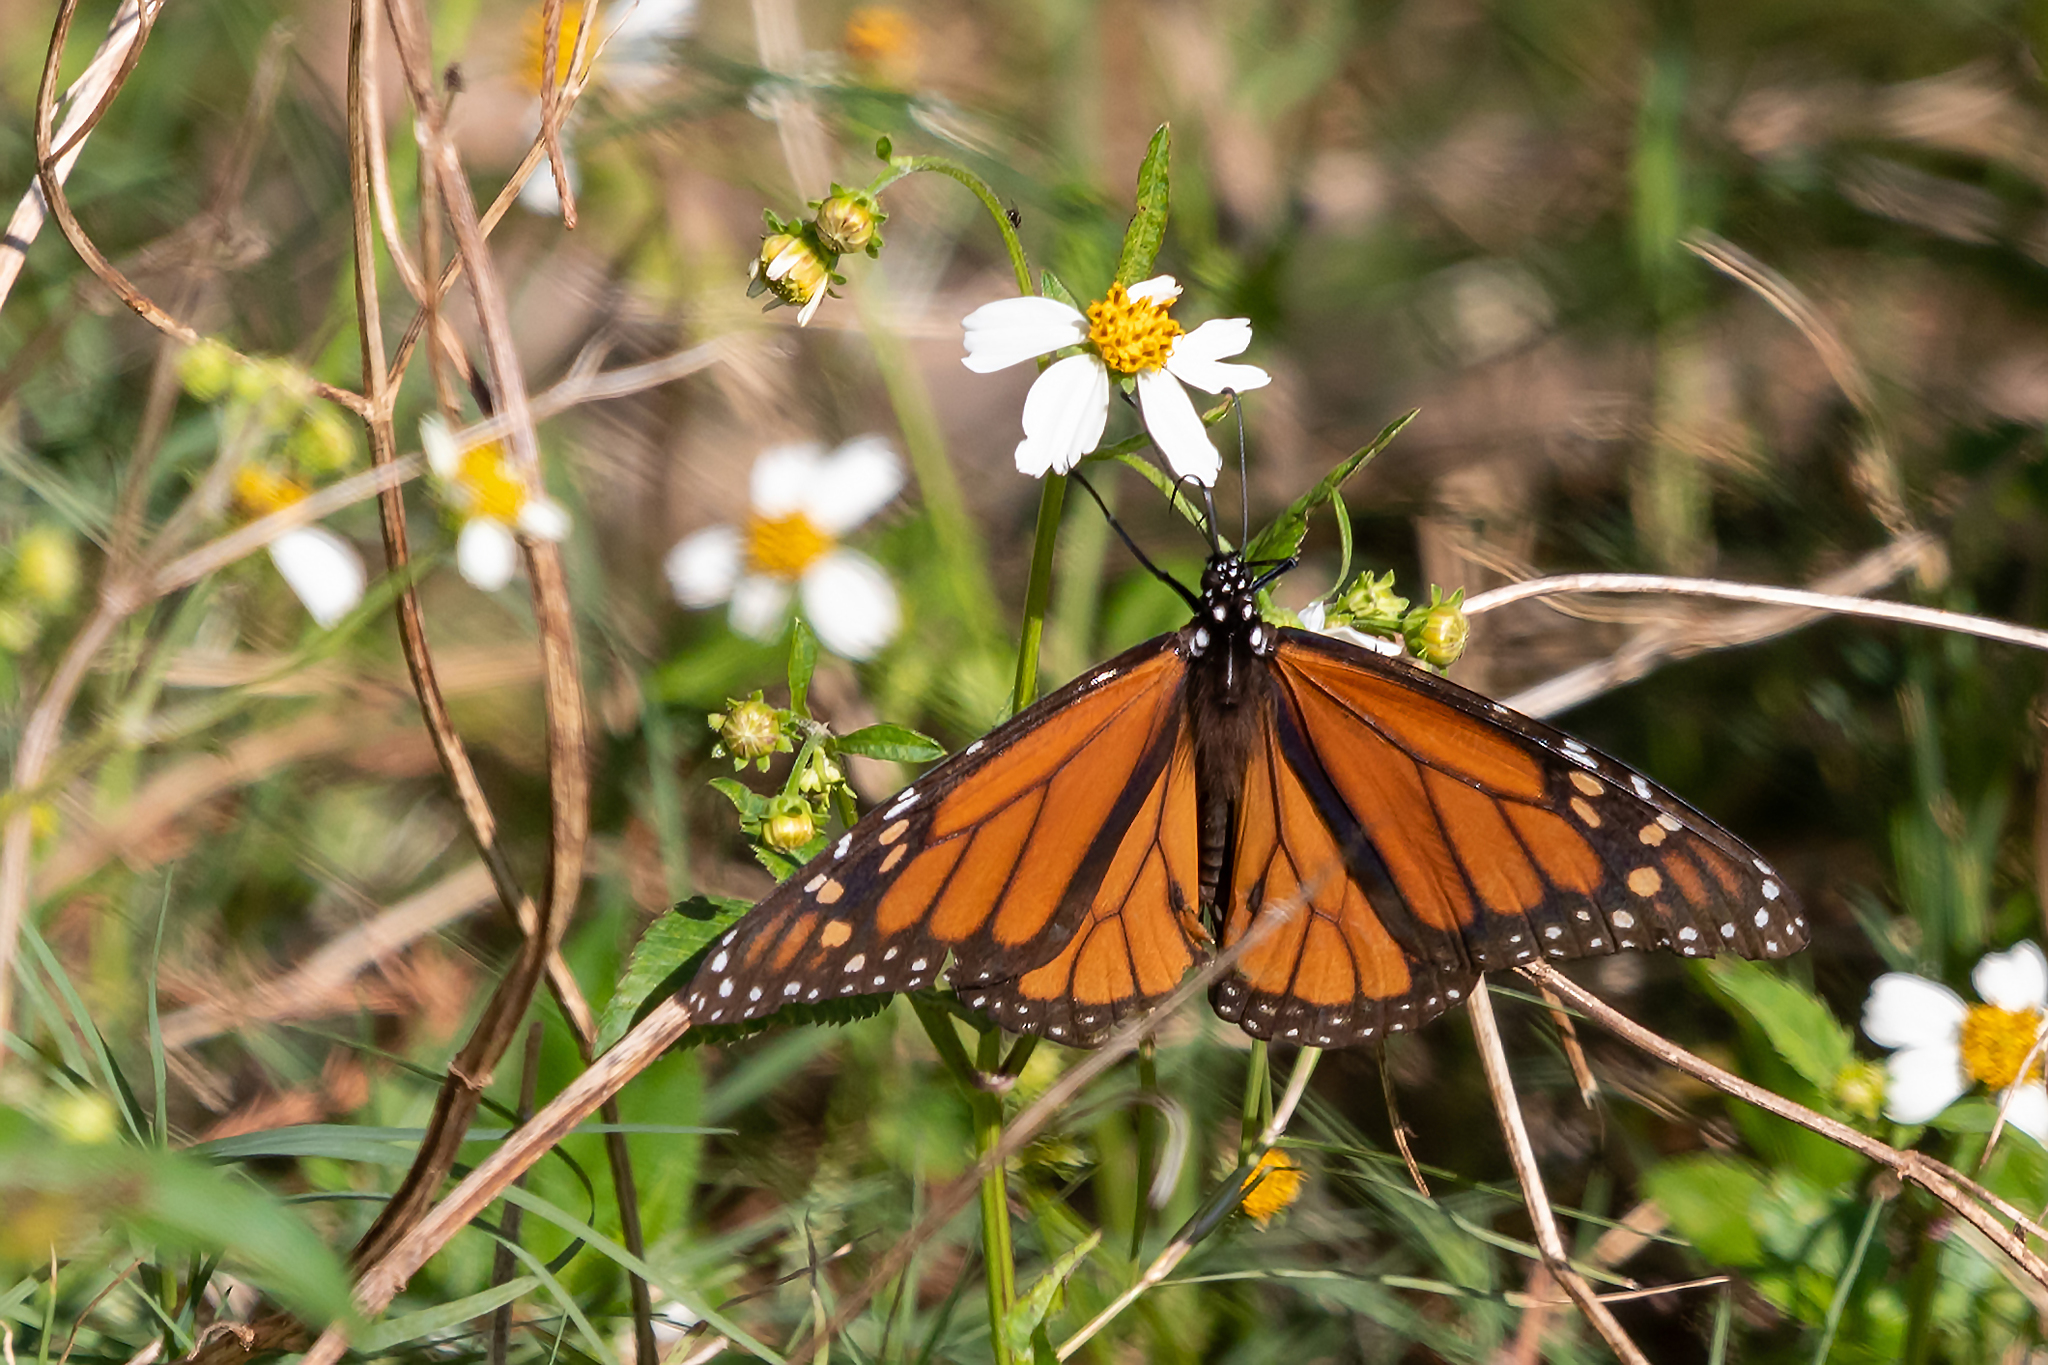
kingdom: Animalia
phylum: Arthropoda
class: Insecta
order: Lepidoptera
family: Nymphalidae
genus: Danaus
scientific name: Danaus plexippus
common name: Monarch
